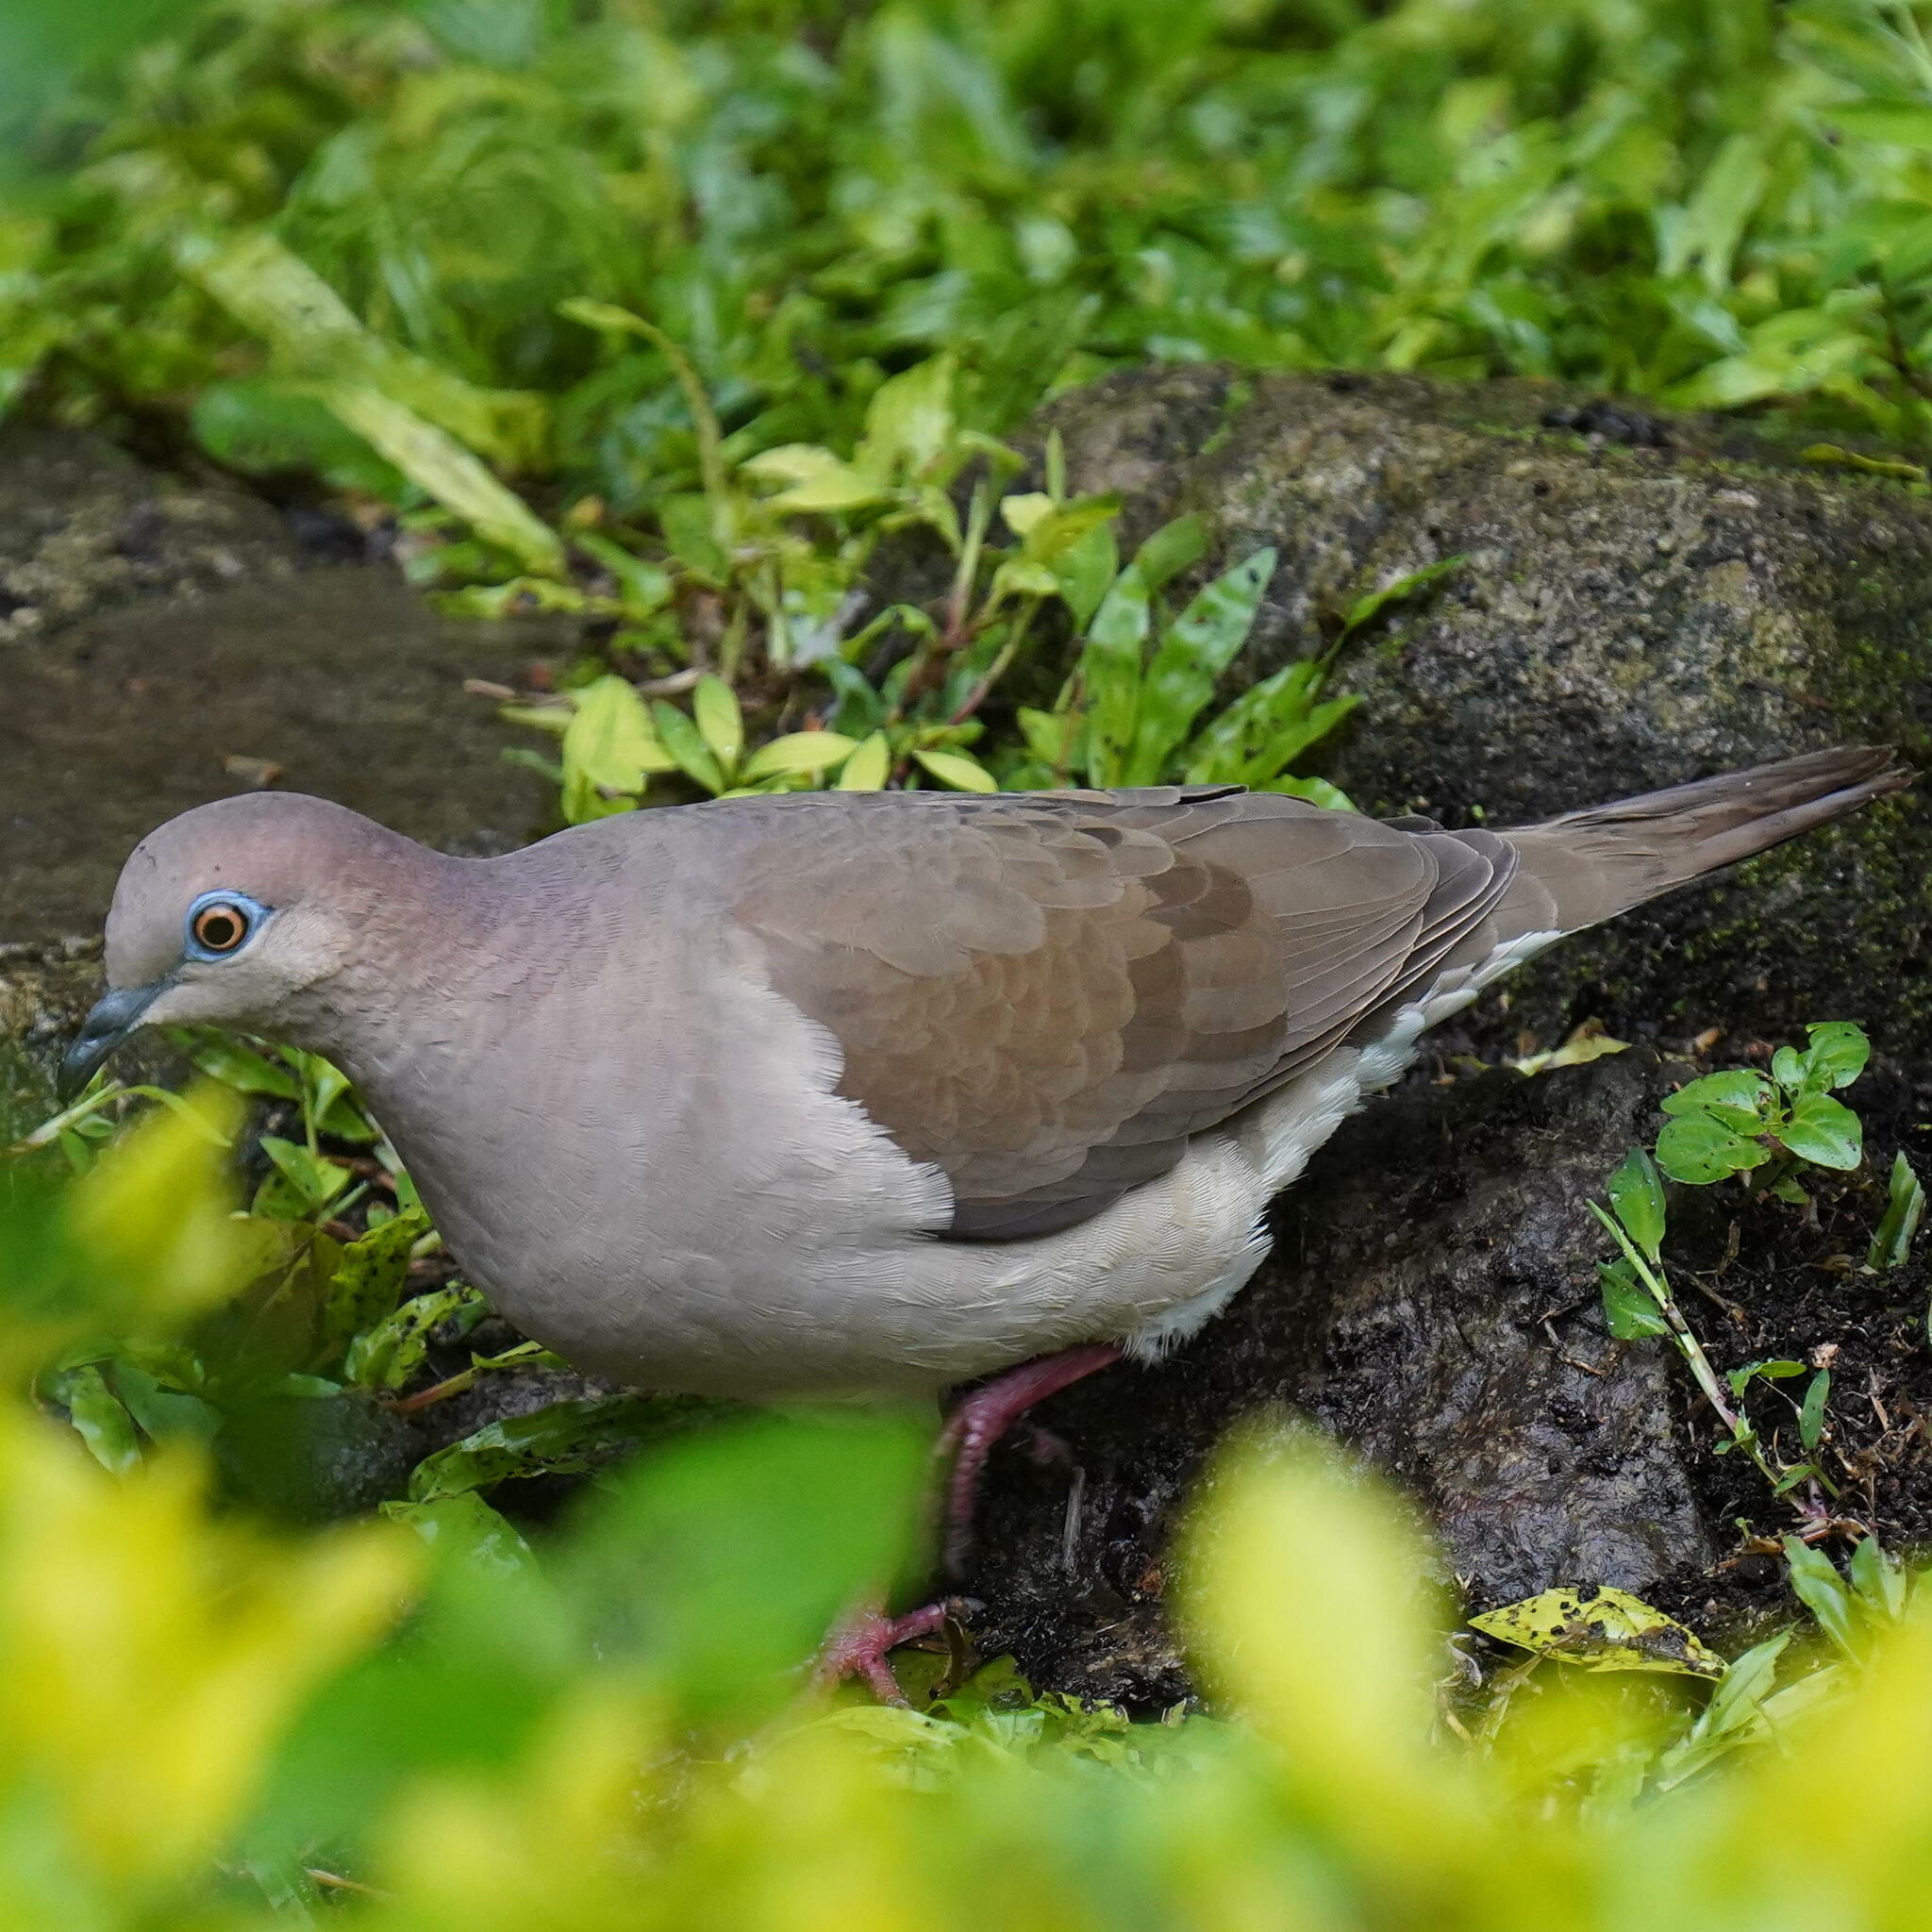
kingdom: Animalia
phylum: Chordata
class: Aves
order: Columbiformes
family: Columbidae
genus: Leptotila
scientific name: Leptotila verreauxi
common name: White-tipped dove
